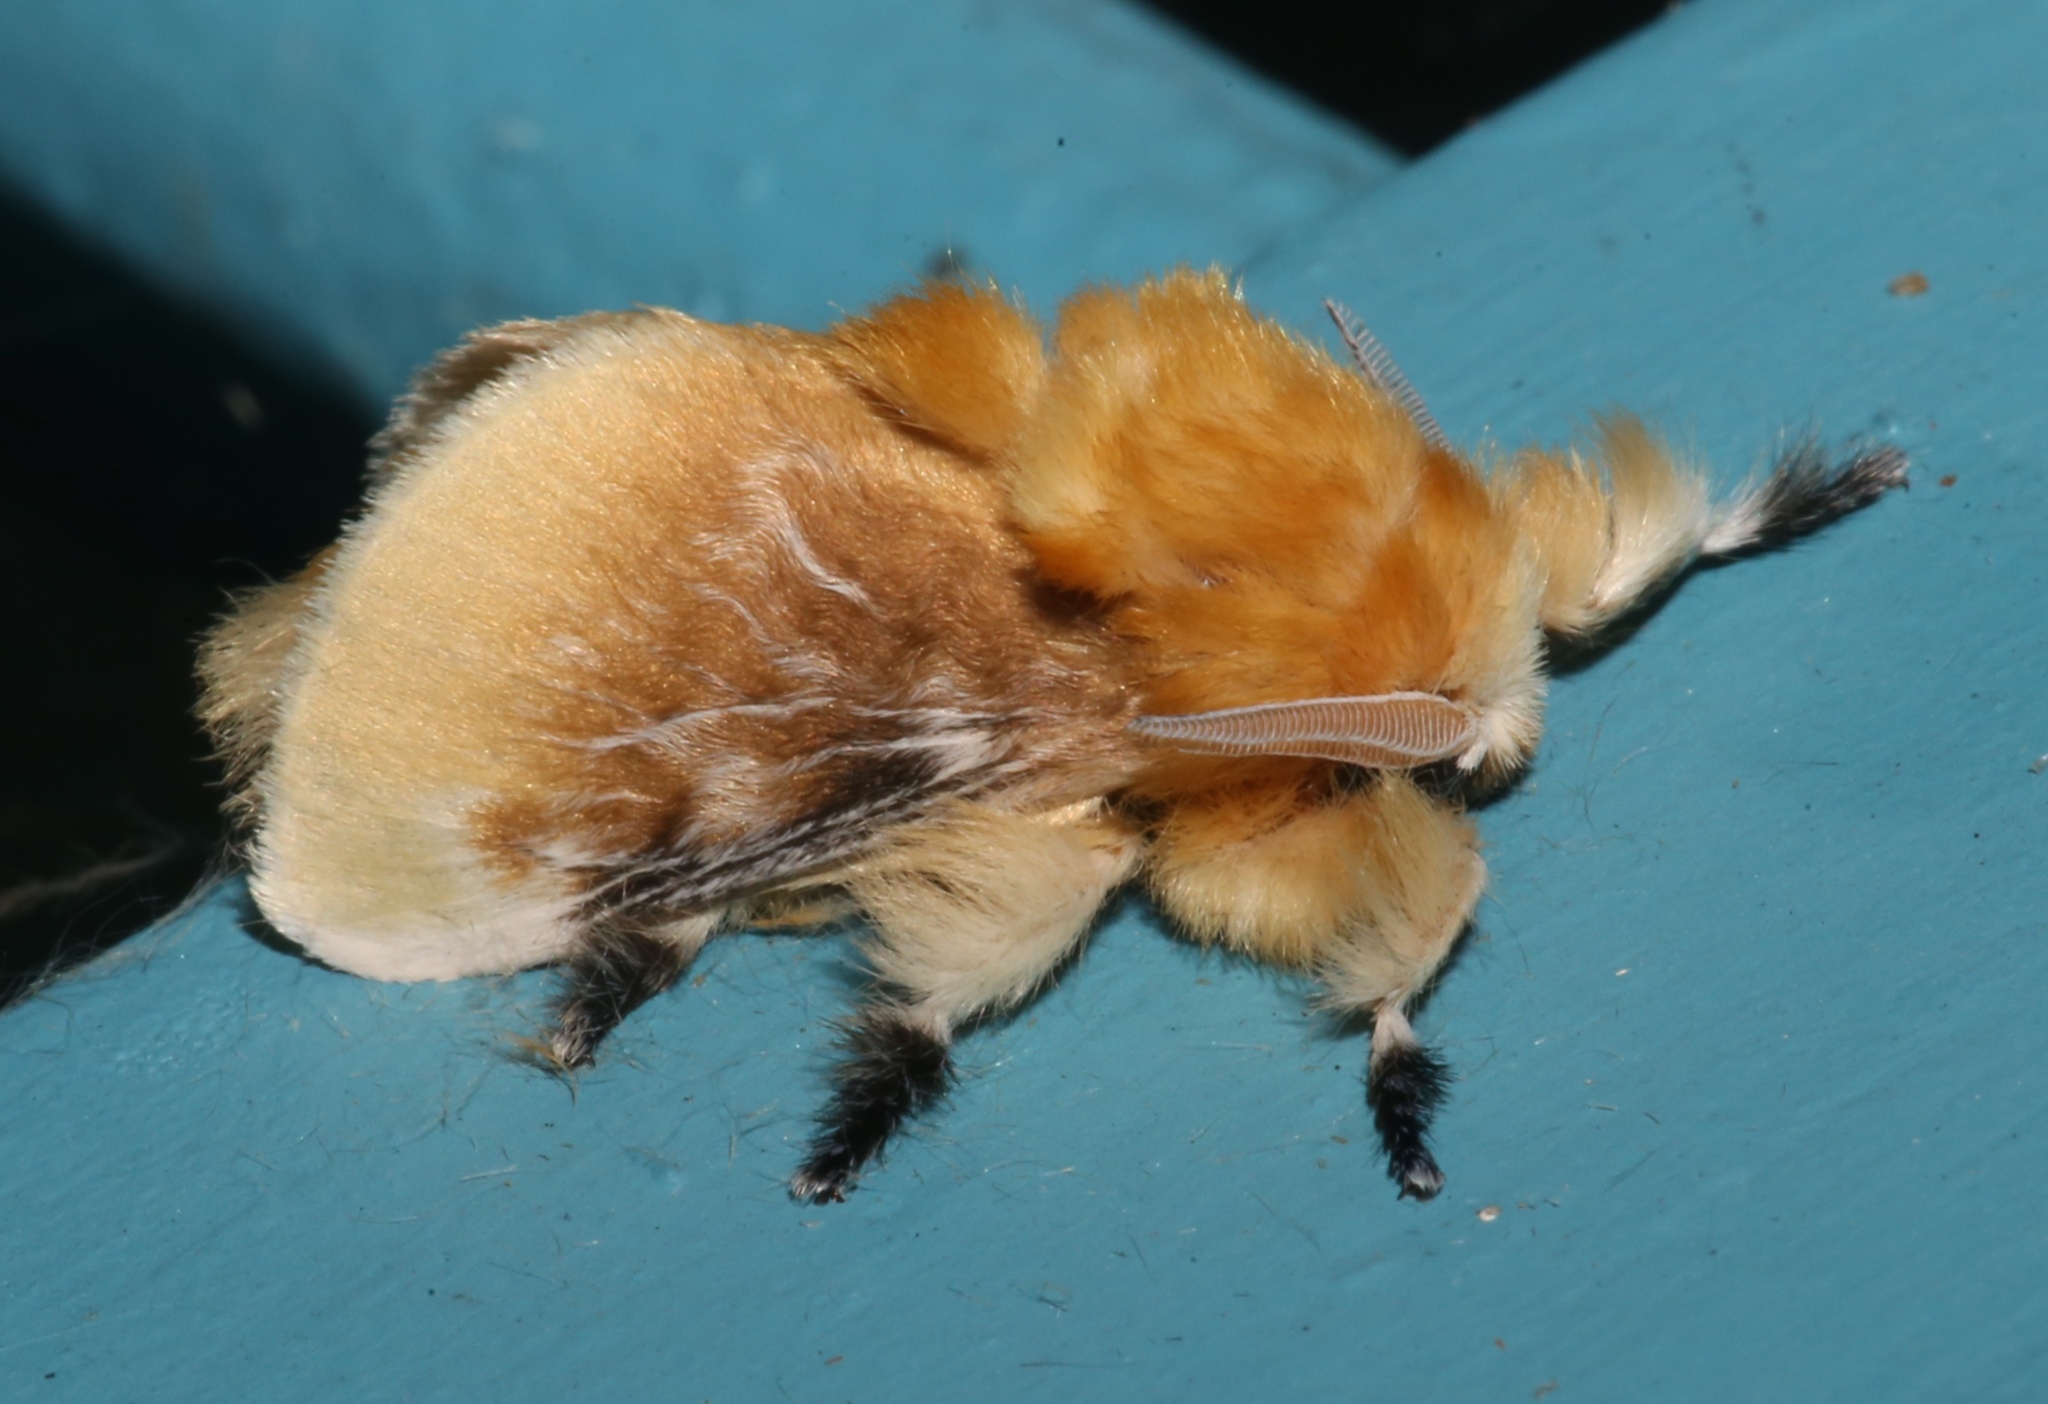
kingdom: Animalia
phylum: Arthropoda
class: Insecta
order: Lepidoptera
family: Megalopygidae
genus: Megalopyge
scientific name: Megalopyge opercularis
